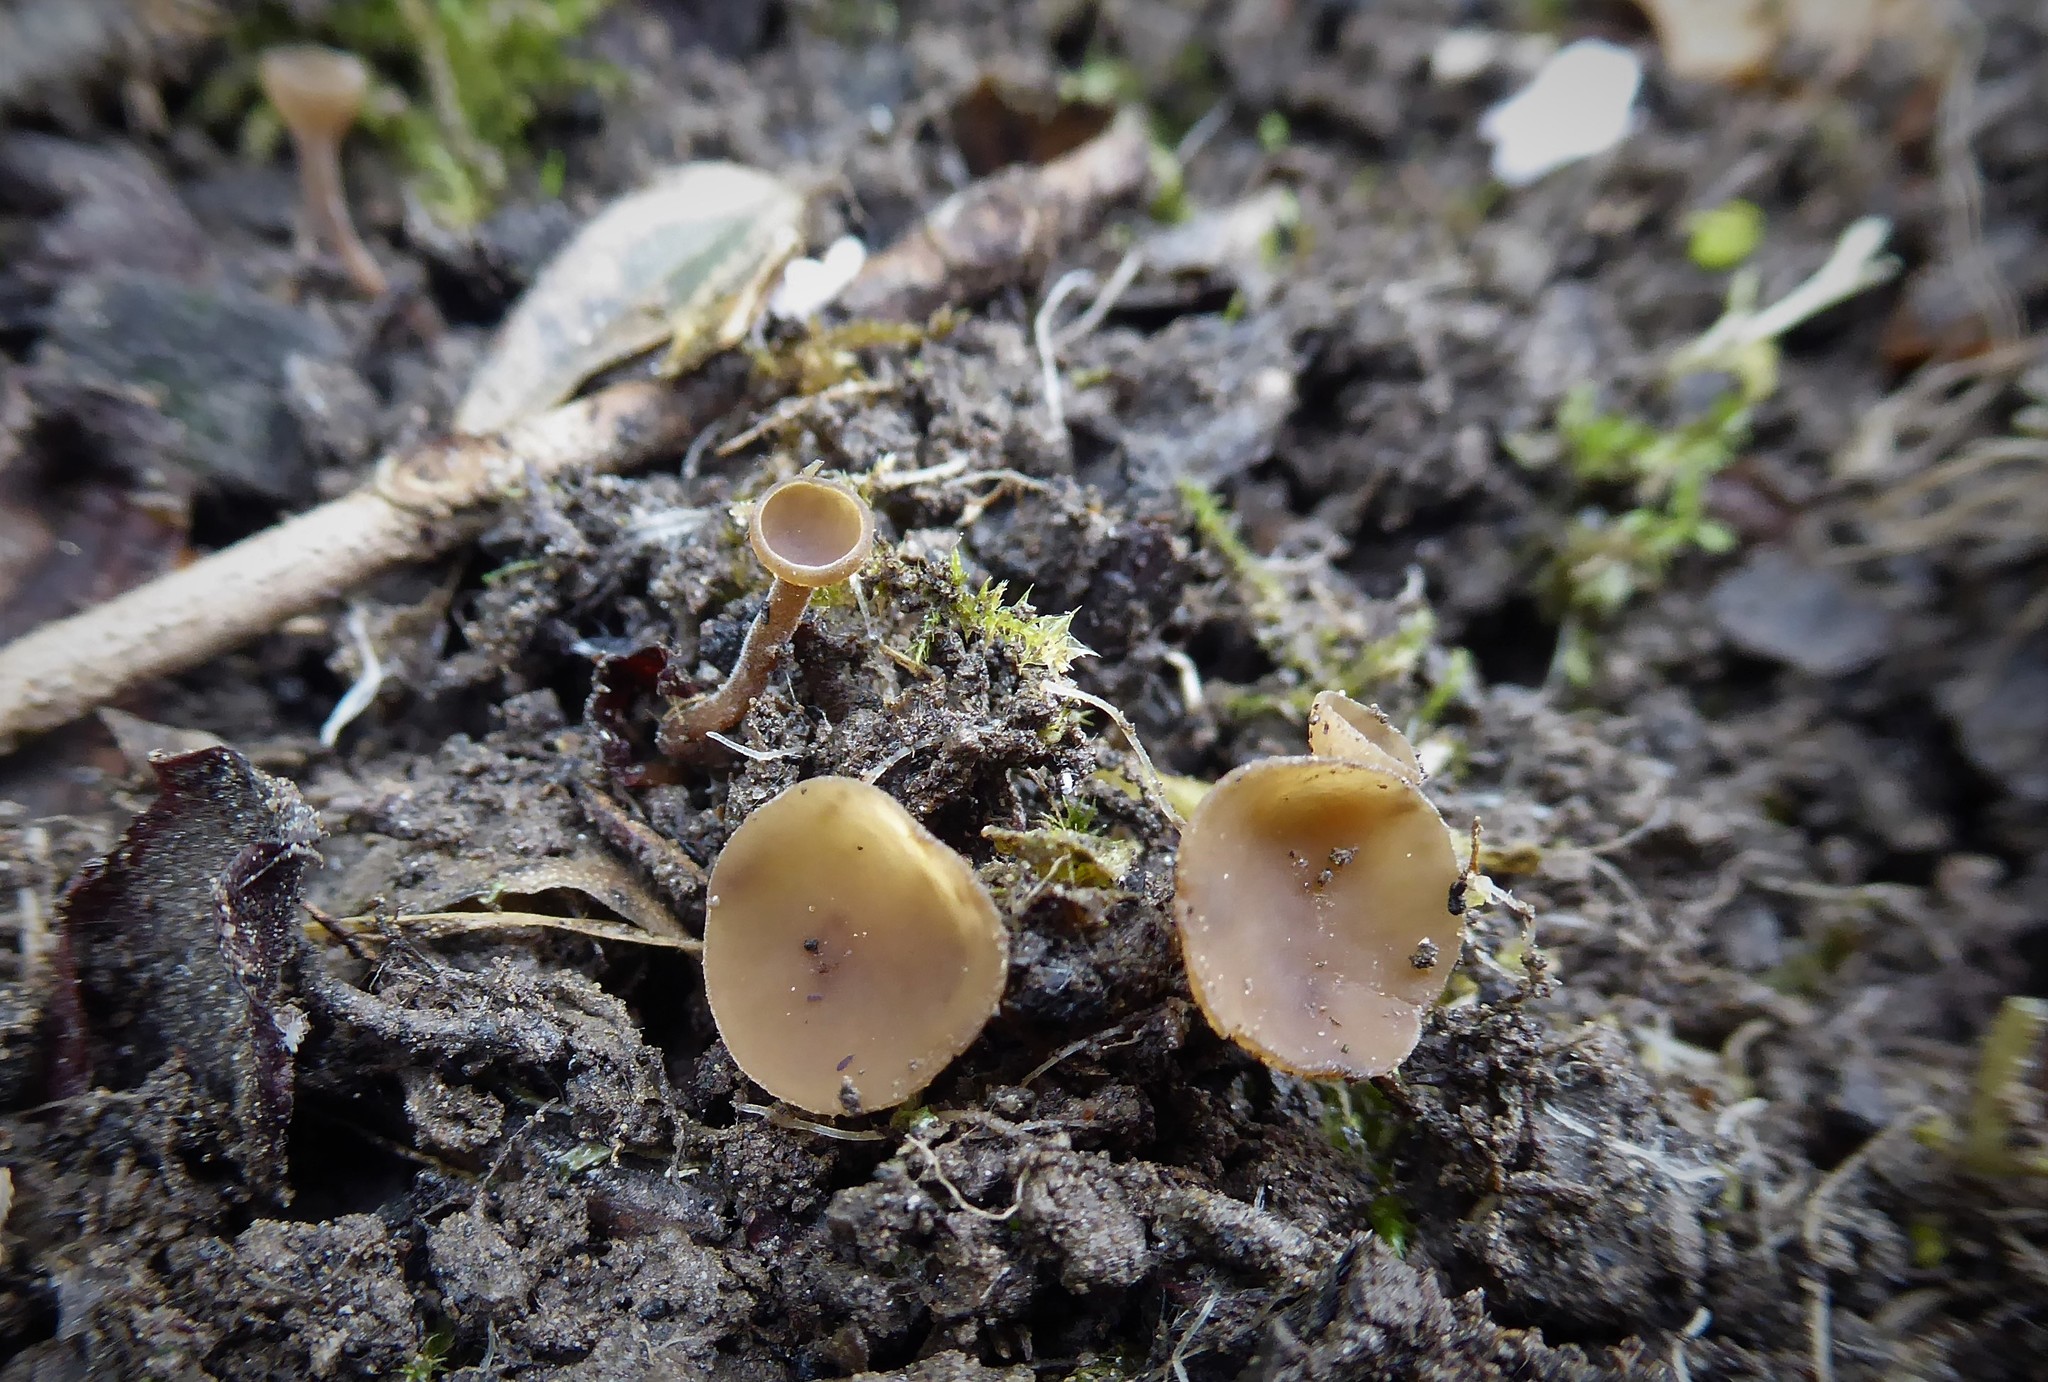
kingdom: Fungi
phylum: Ascomycota
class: Leotiomycetes
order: Helotiales
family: Sclerotiniaceae
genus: Ciborinia
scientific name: Ciborinia camelliae
